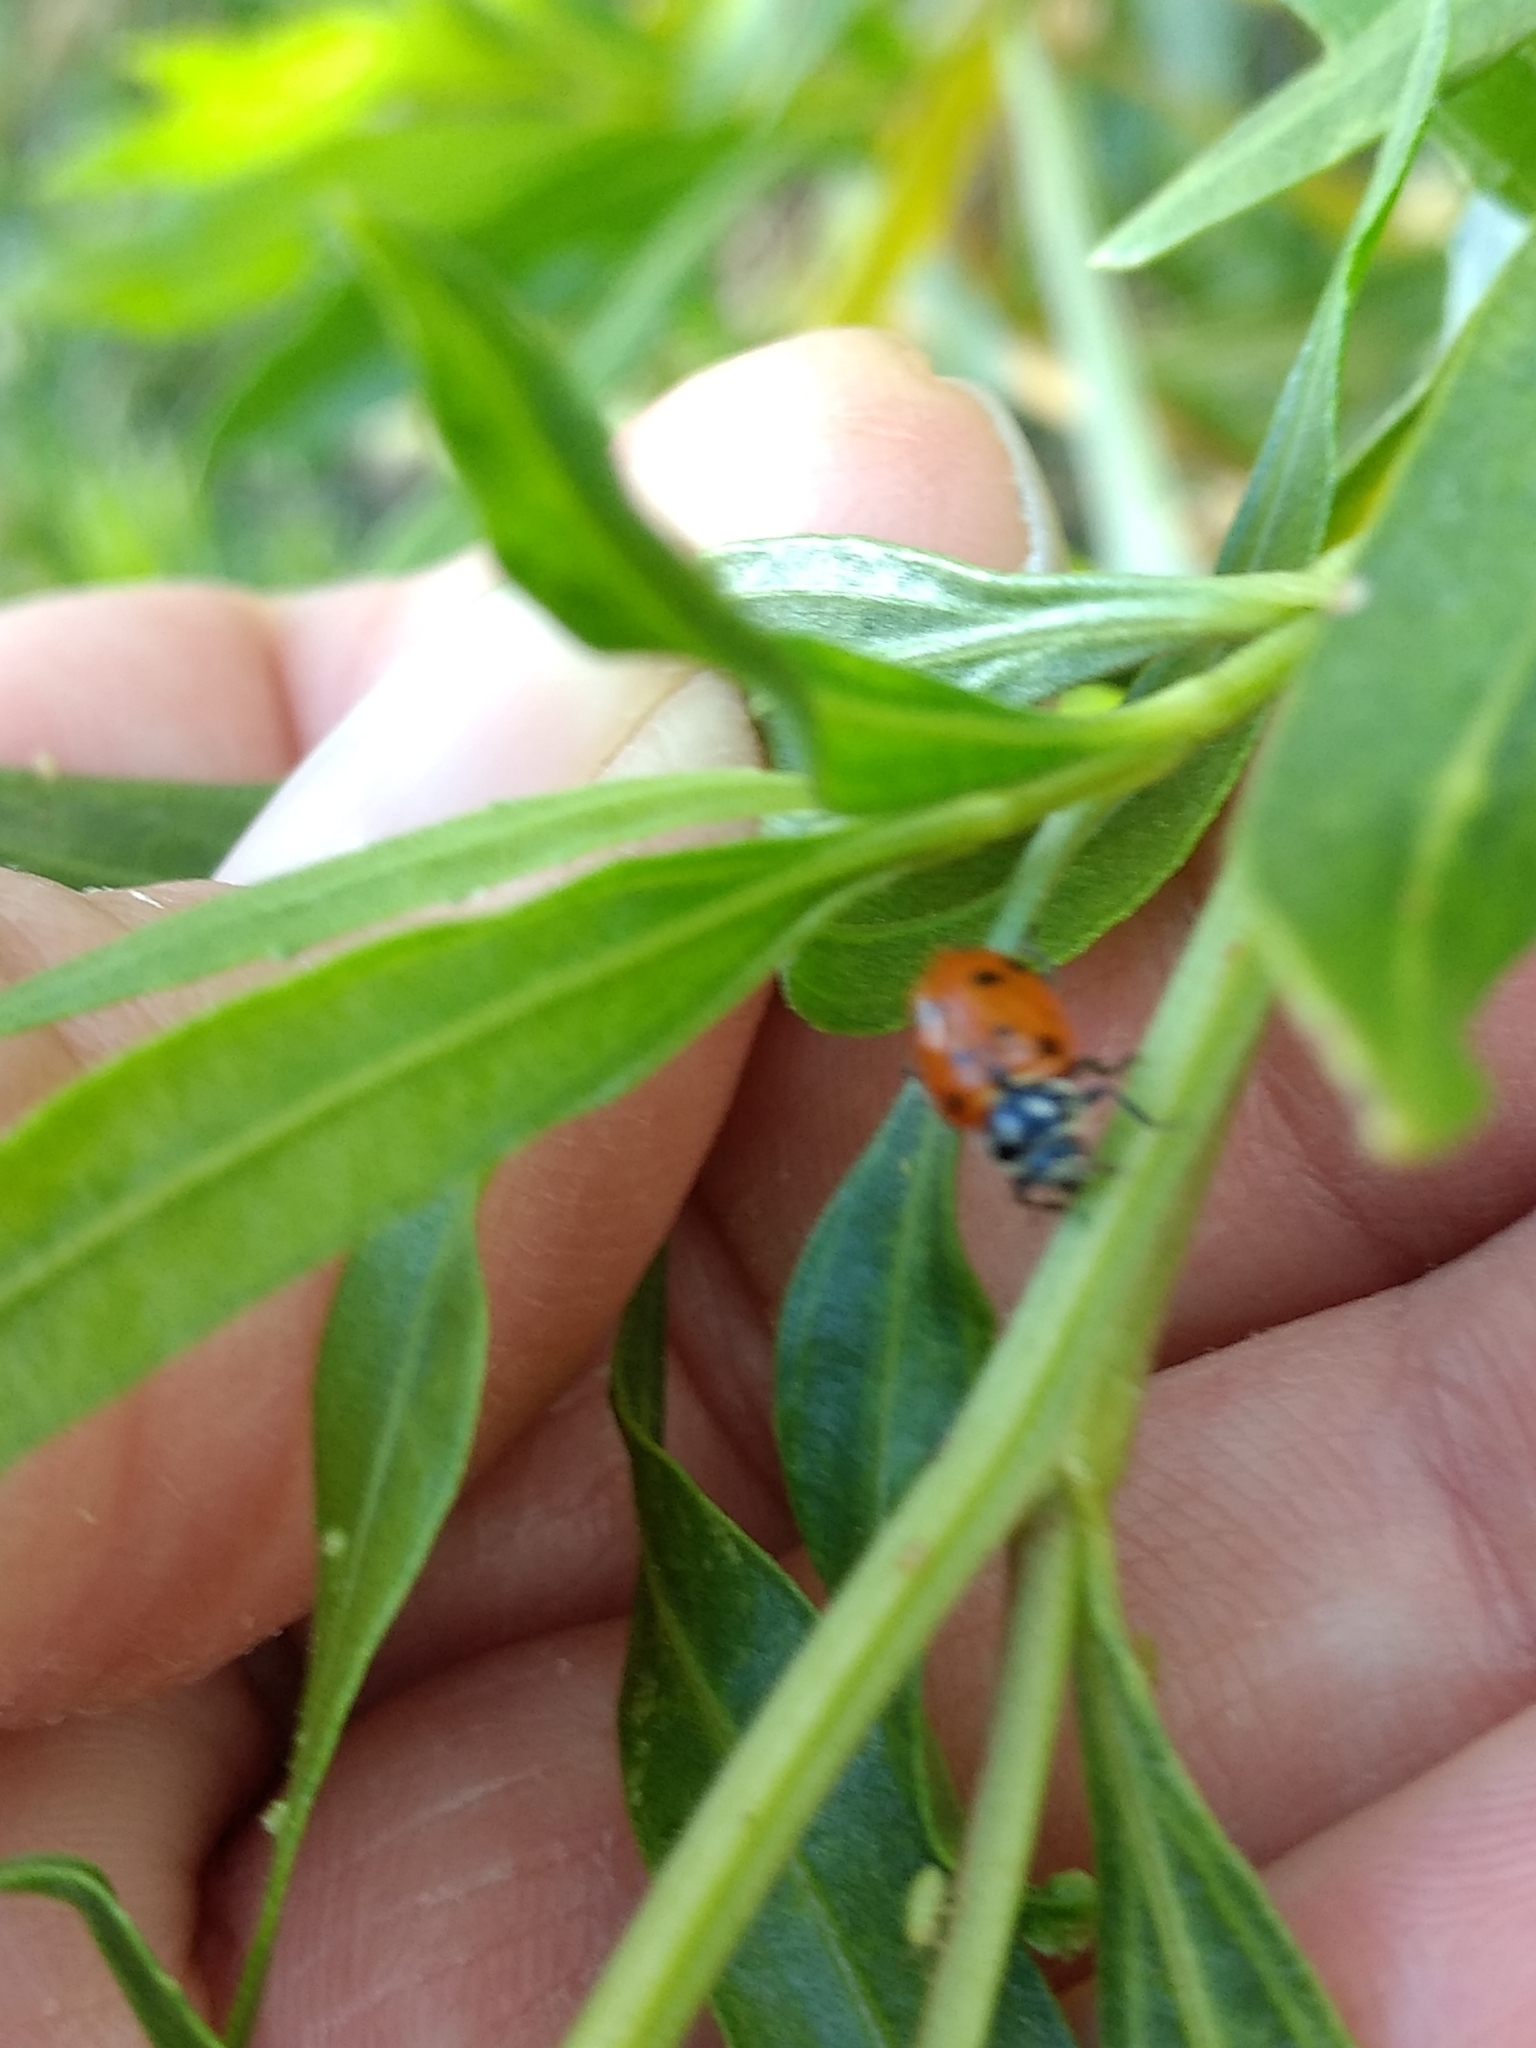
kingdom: Animalia
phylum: Arthropoda
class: Insecta
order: Coleoptera
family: Coccinellidae
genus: Hippodamia
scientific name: Hippodamia convergens
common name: Convergent lady beetle
